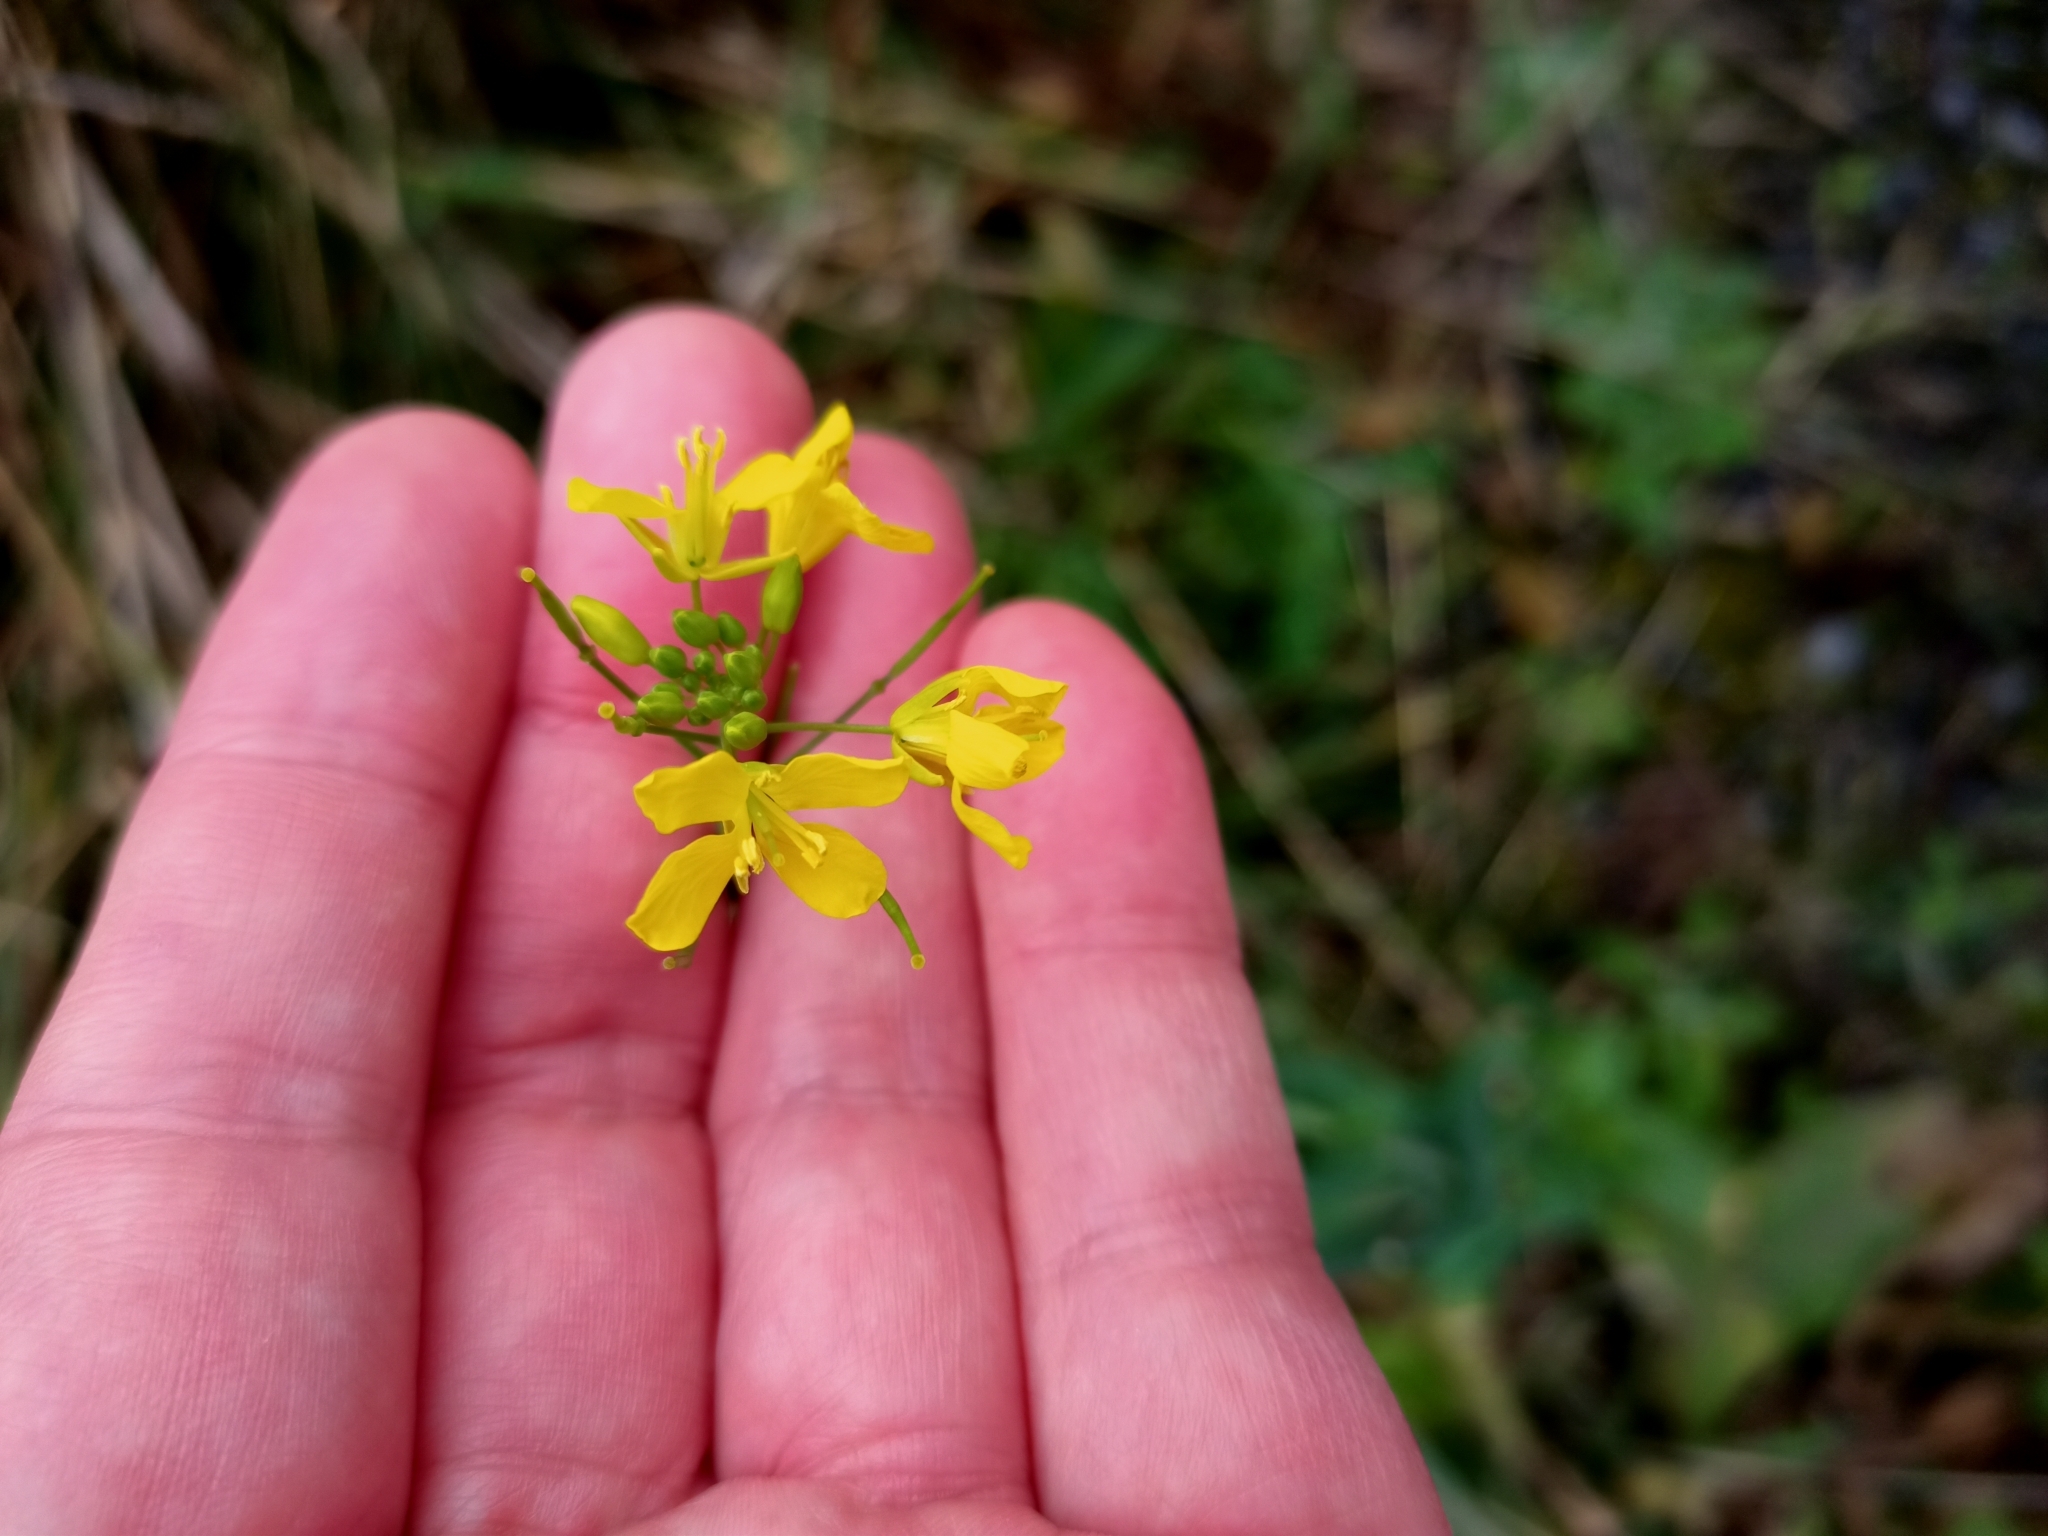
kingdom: Plantae
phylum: Tracheophyta
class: Magnoliopsida
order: Brassicales
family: Brassicaceae
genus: Brassica
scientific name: Brassica rapa
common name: Field mustard
